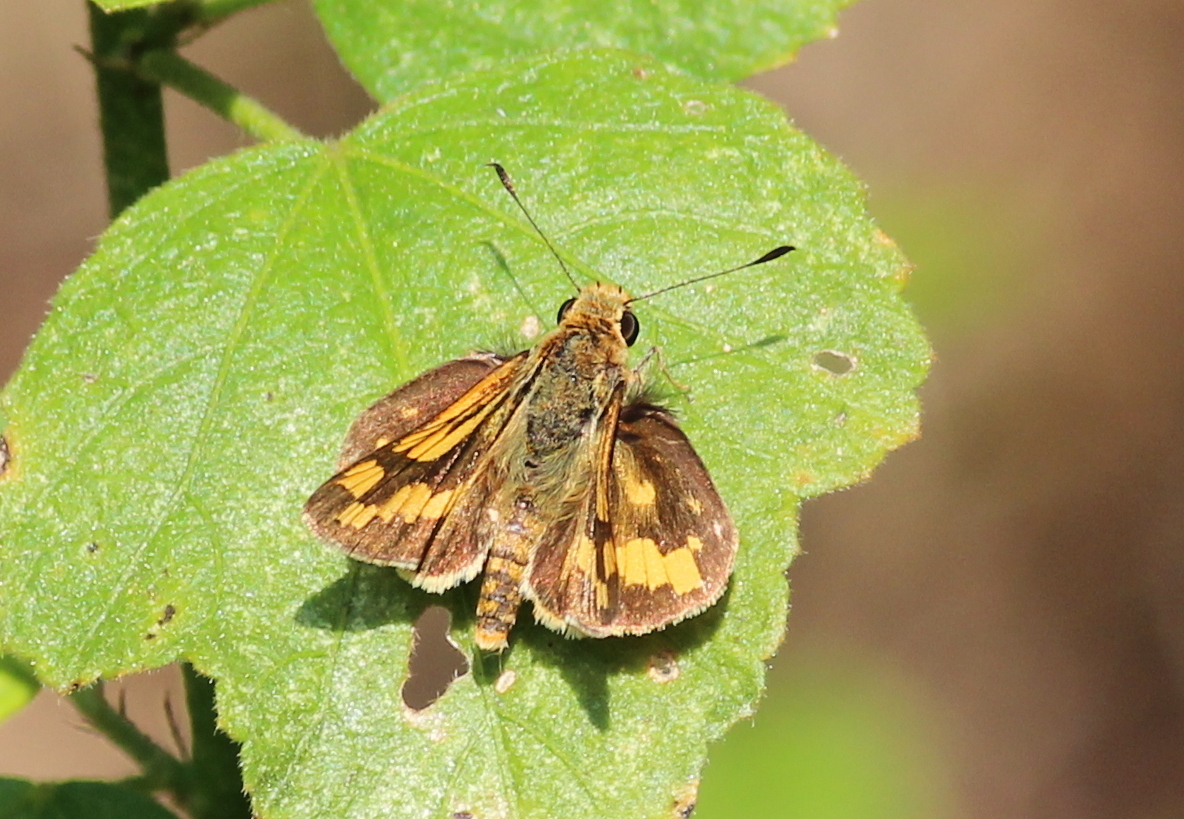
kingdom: Animalia
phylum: Arthropoda
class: Insecta
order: Lepidoptera
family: Hesperiidae
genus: Potanthus
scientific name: Potanthus omaha
